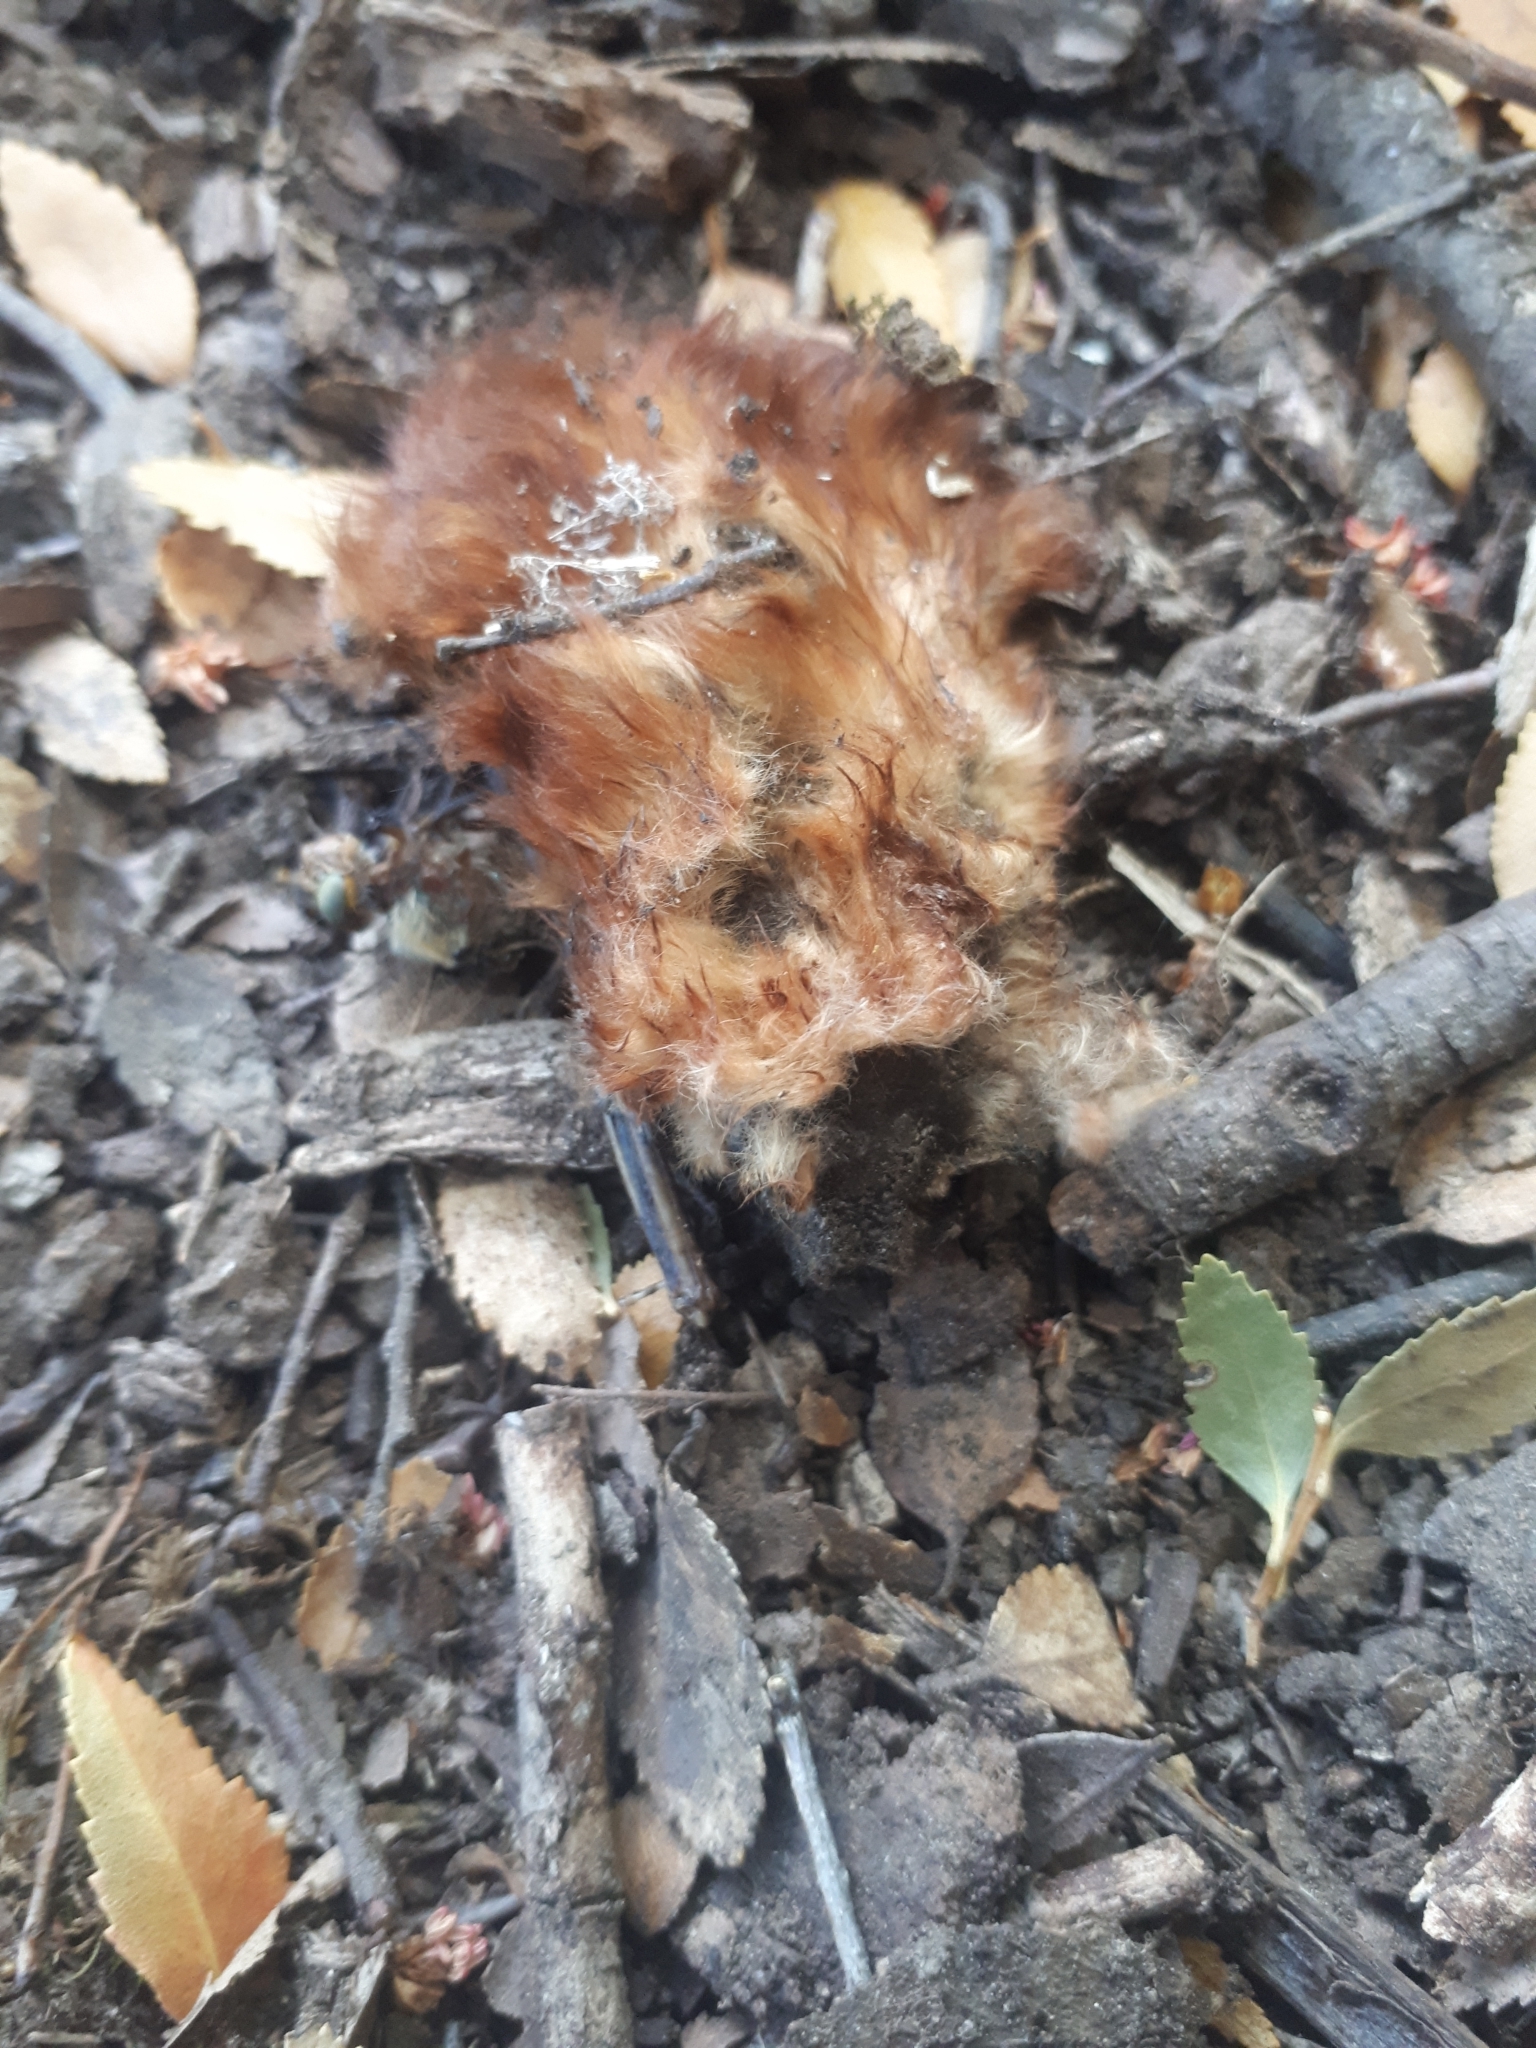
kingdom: Animalia
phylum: Chordata
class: Mammalia
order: Chiroptera
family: Vespertilionidae
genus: Lasiurus
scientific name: Lasiurus varius
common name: Cinnamon red bat
